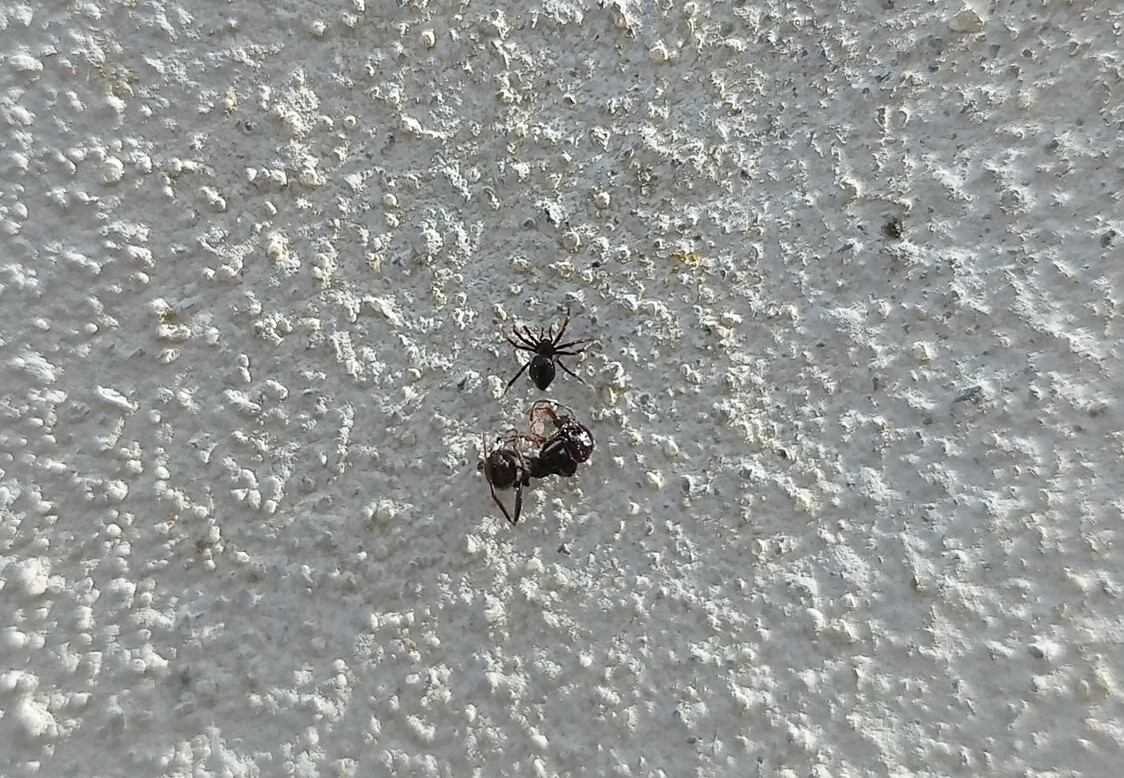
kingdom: Animalia
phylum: Arthropoda
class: Arachnida
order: Araneae
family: Theridiidae
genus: Euryopis
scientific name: Euryopis episinoides
